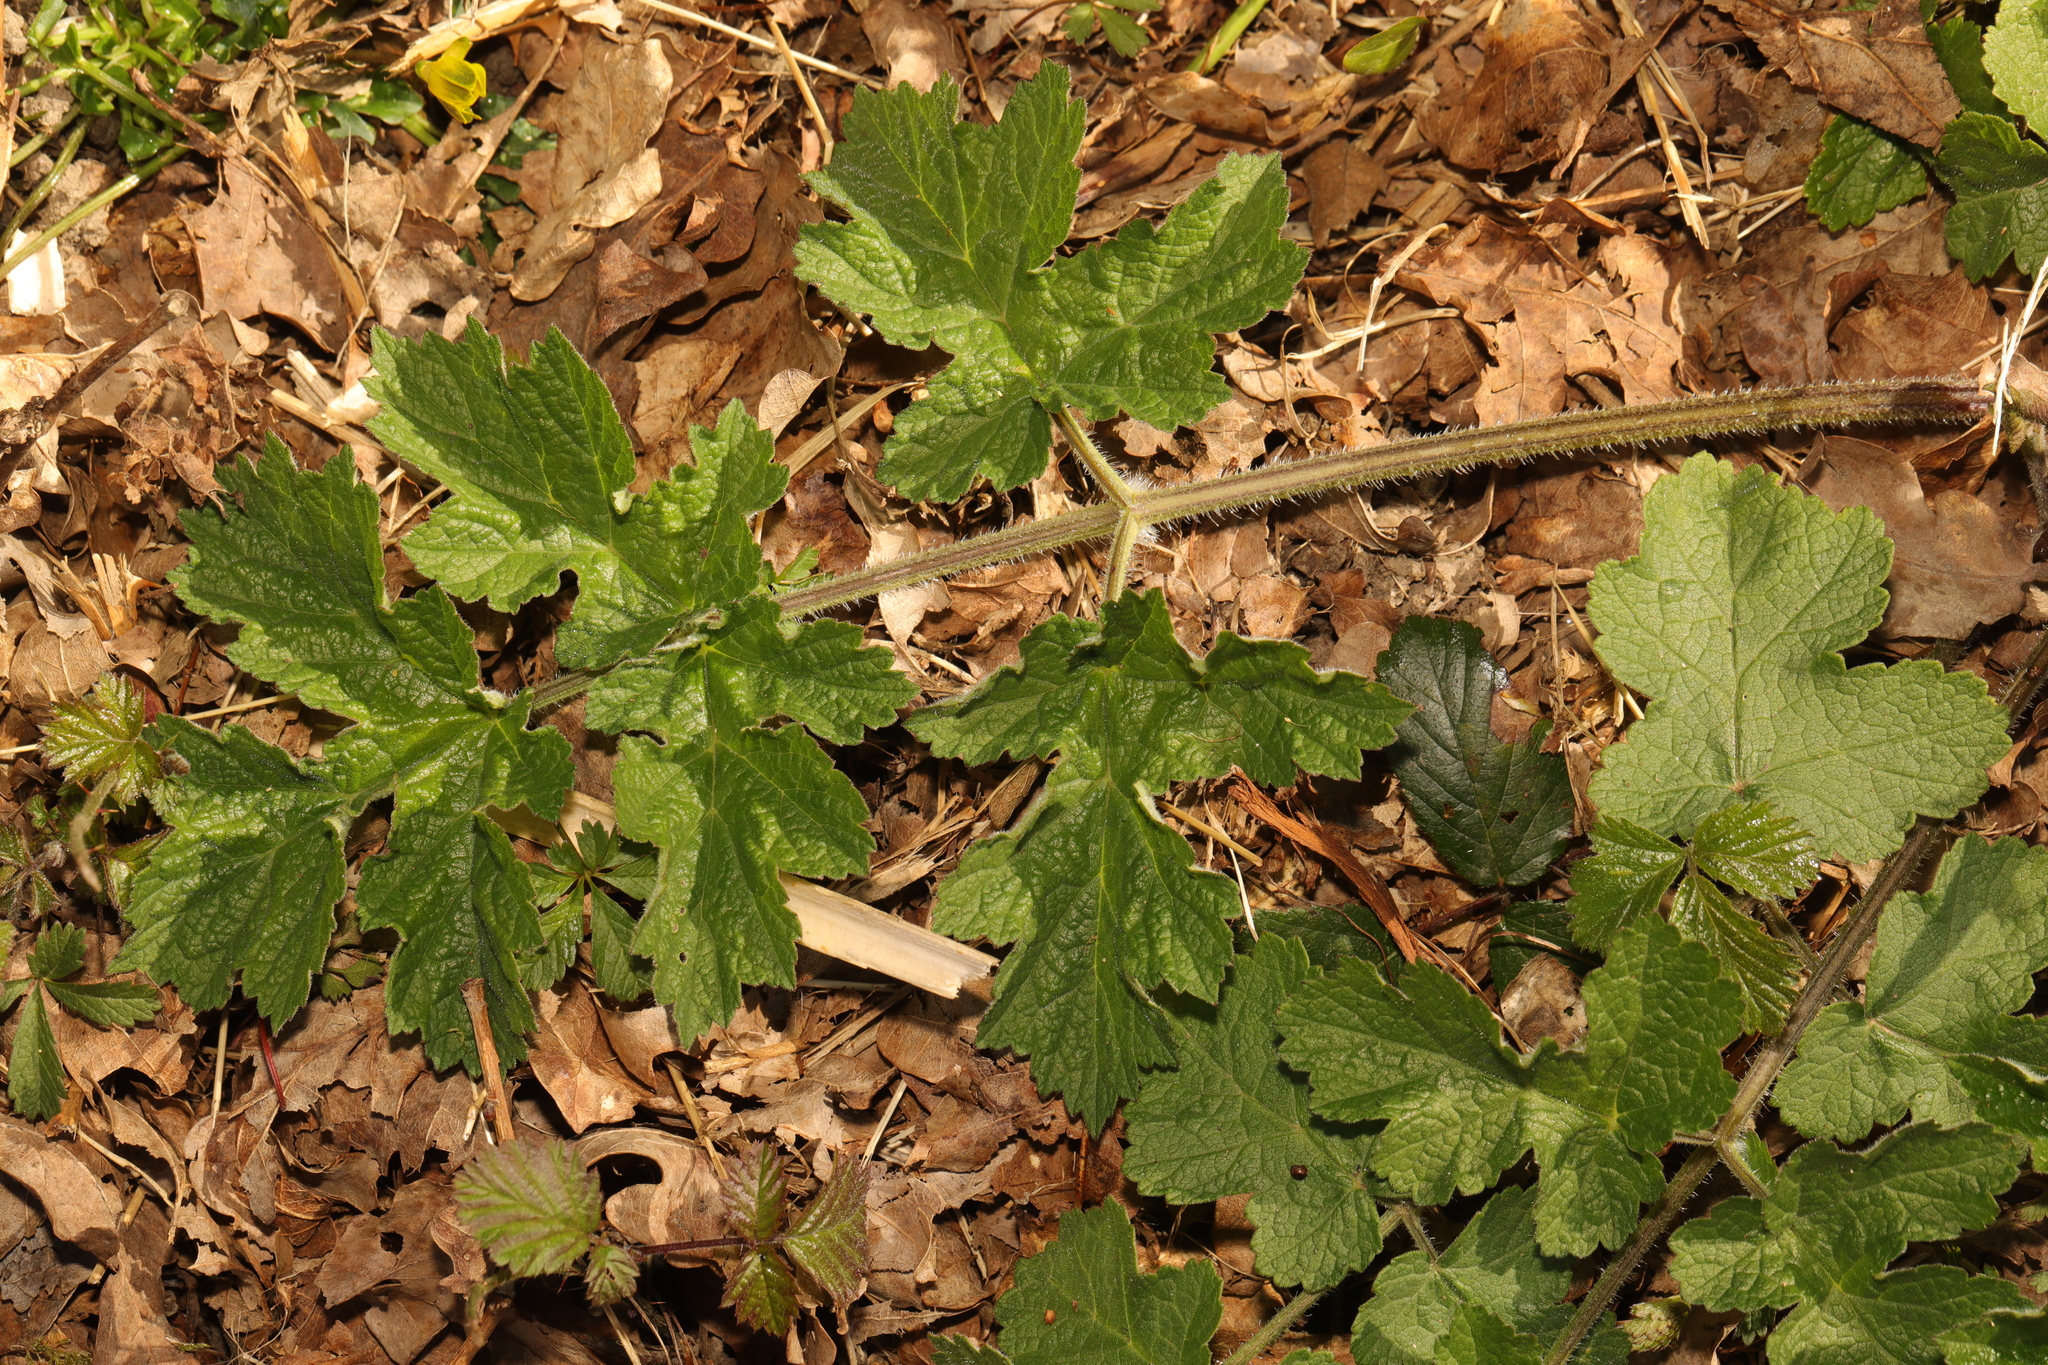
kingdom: Plantae
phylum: Tracheophyta
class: Magnoliopsida
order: Apiales
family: Apiaceae
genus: Heracleum
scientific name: Heracleum sphondylium
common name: Hogweed
